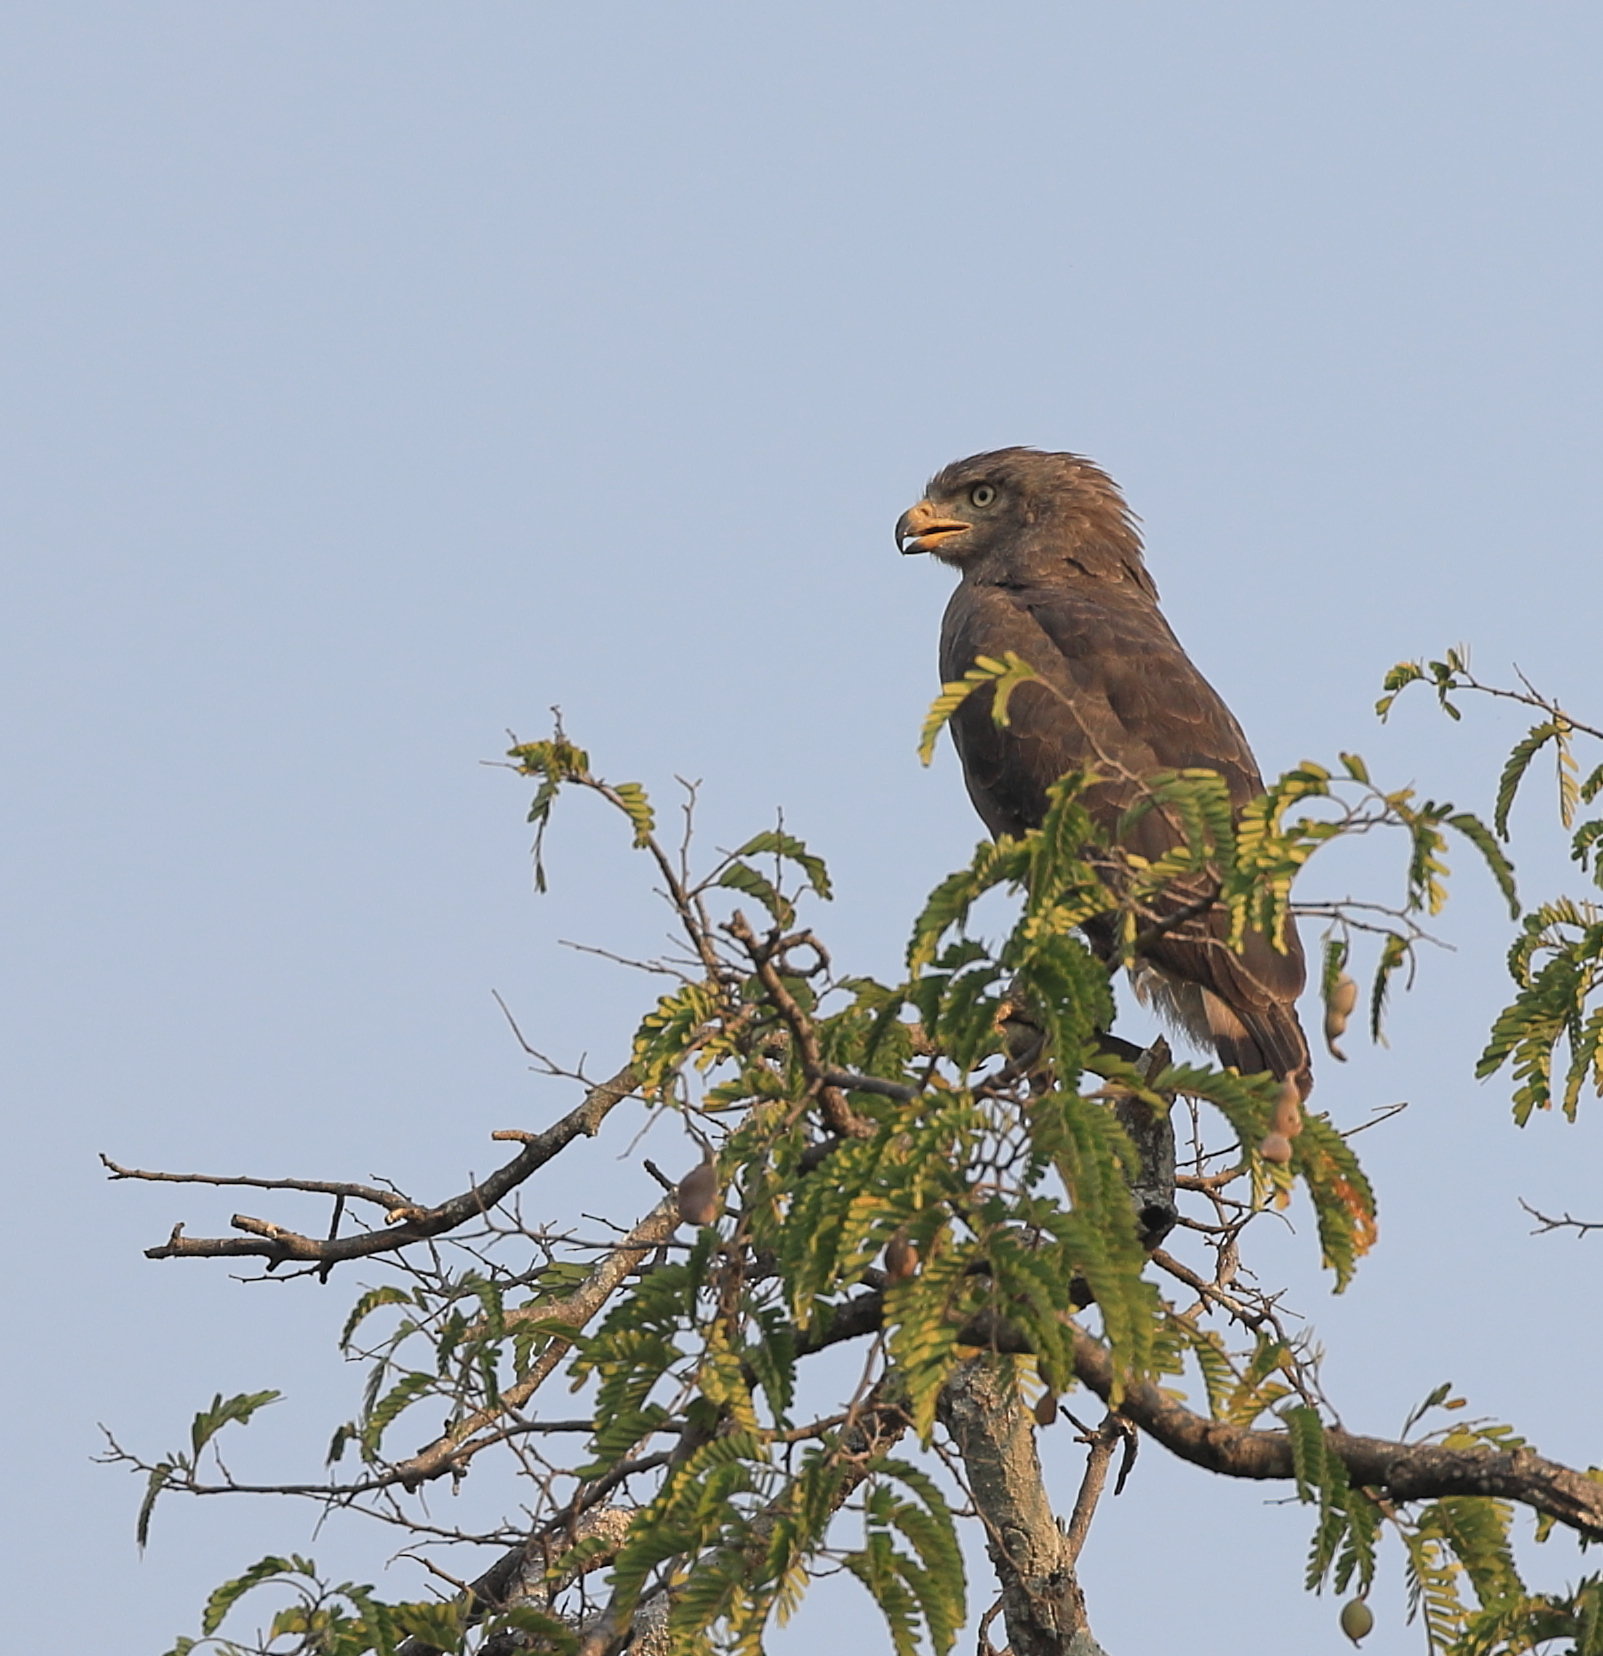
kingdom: Animalia
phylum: Chordata
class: Aves
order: Accipitriformes
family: Accipitridae
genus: Circaetus
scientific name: Circaetus cinerascens
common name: Western banded snake eagle
